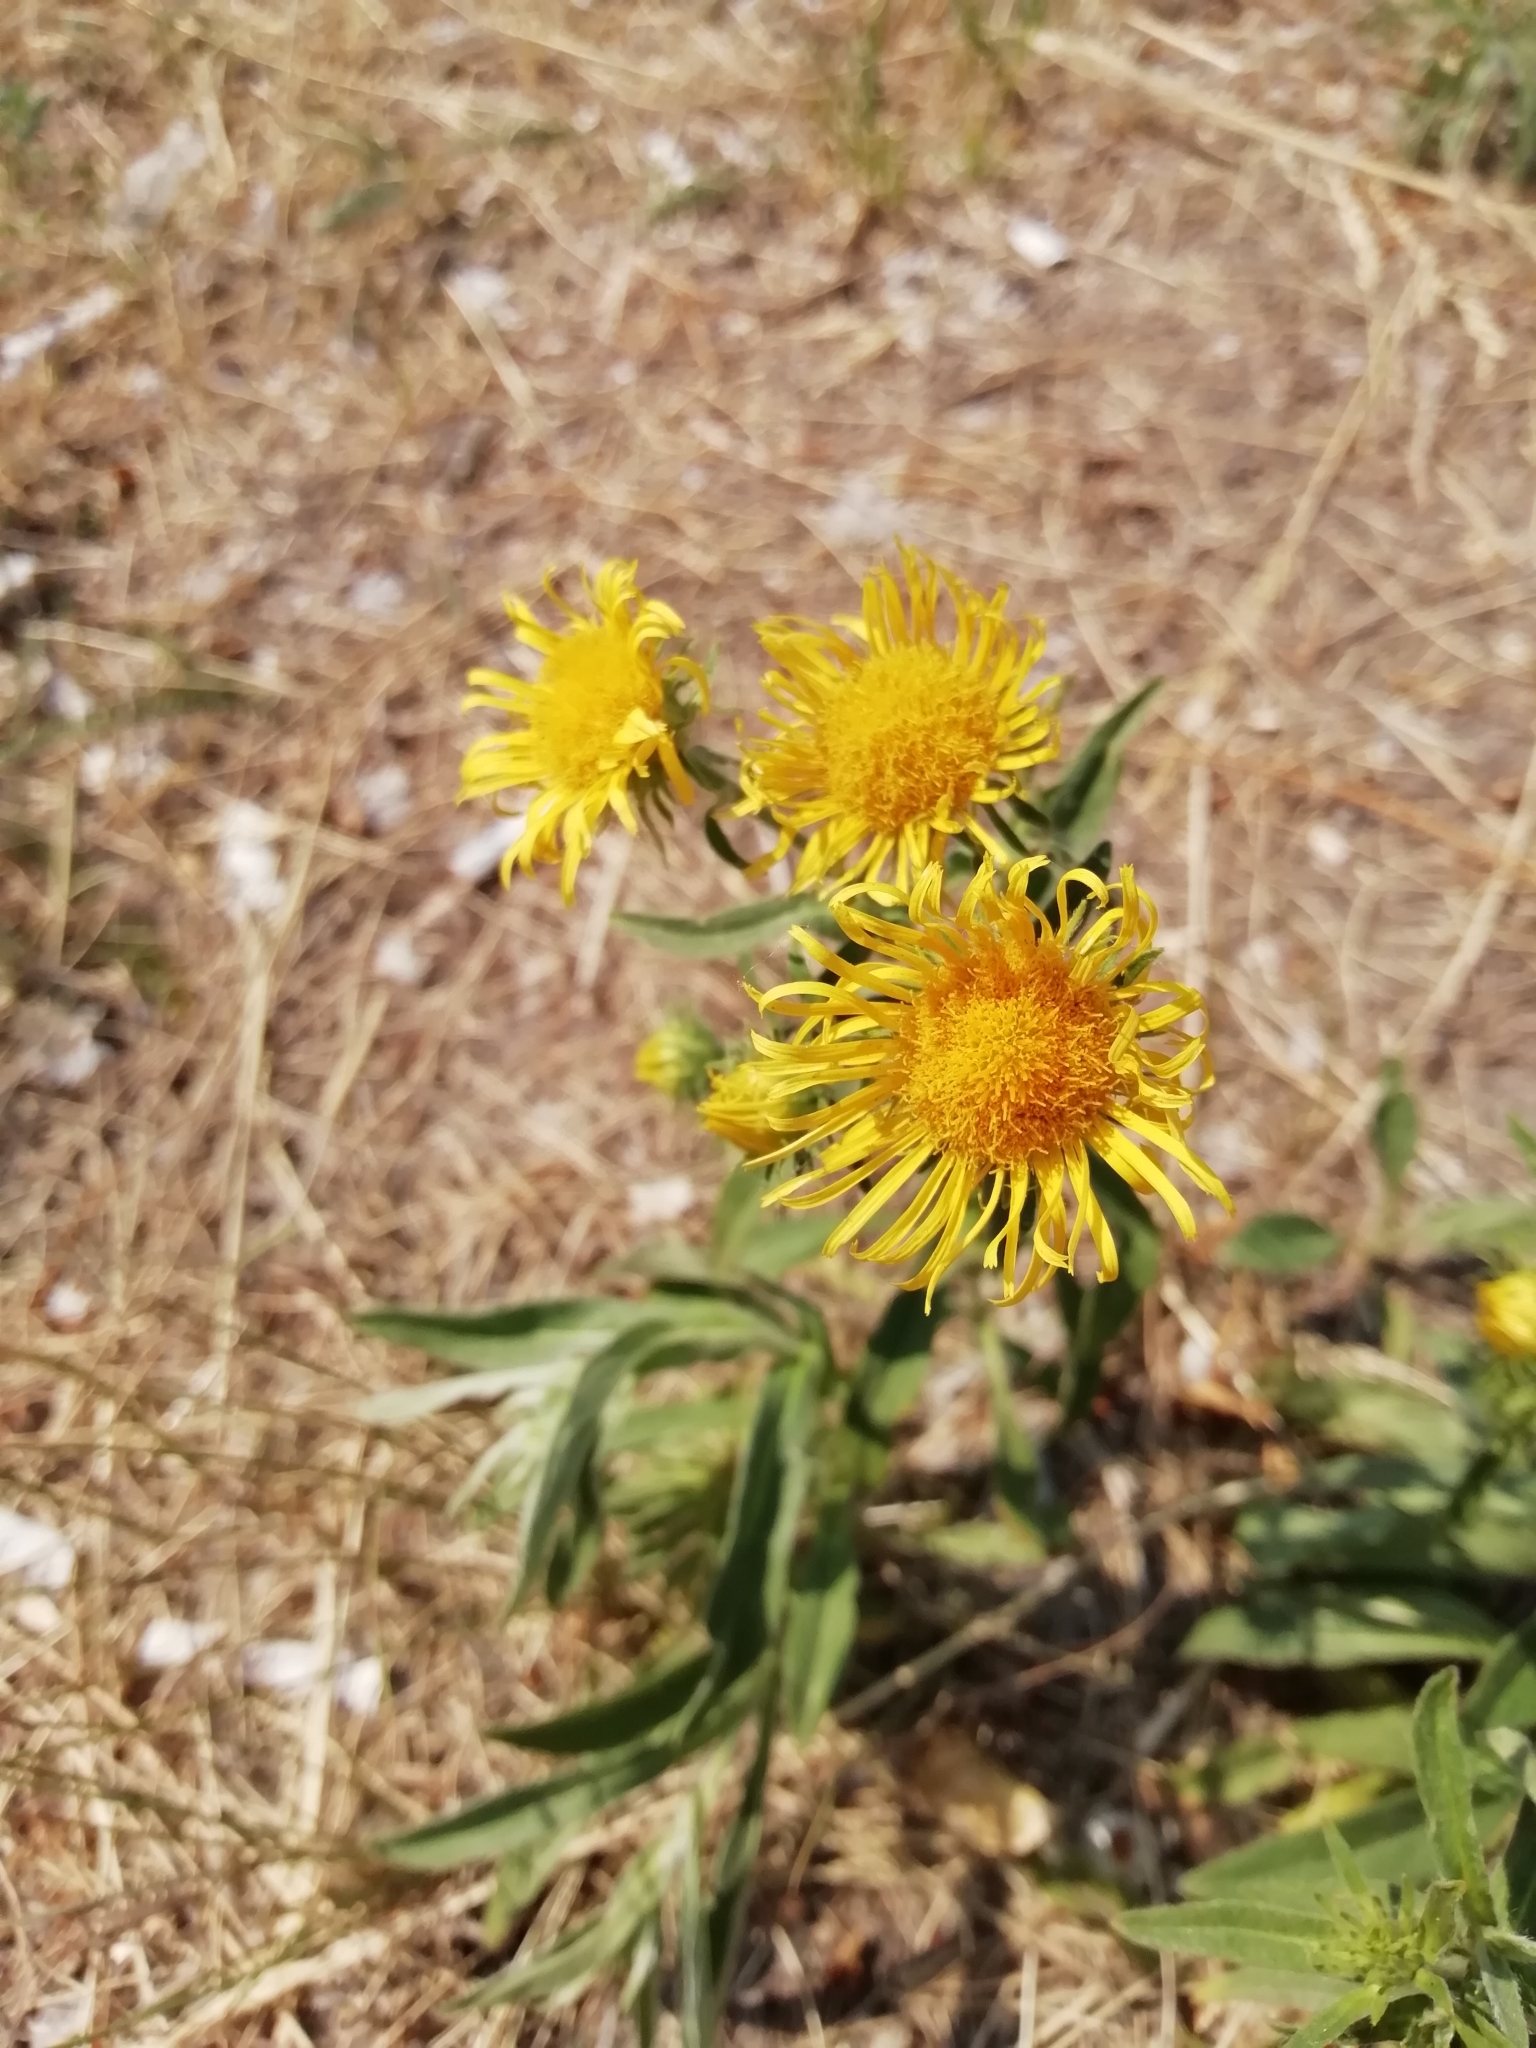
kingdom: Plantae
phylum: Tracheophyta
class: Magnoliopsida
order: Asterales
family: Asteraceae
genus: Pentanema
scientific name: Pentanema britannicum
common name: British elecampane
